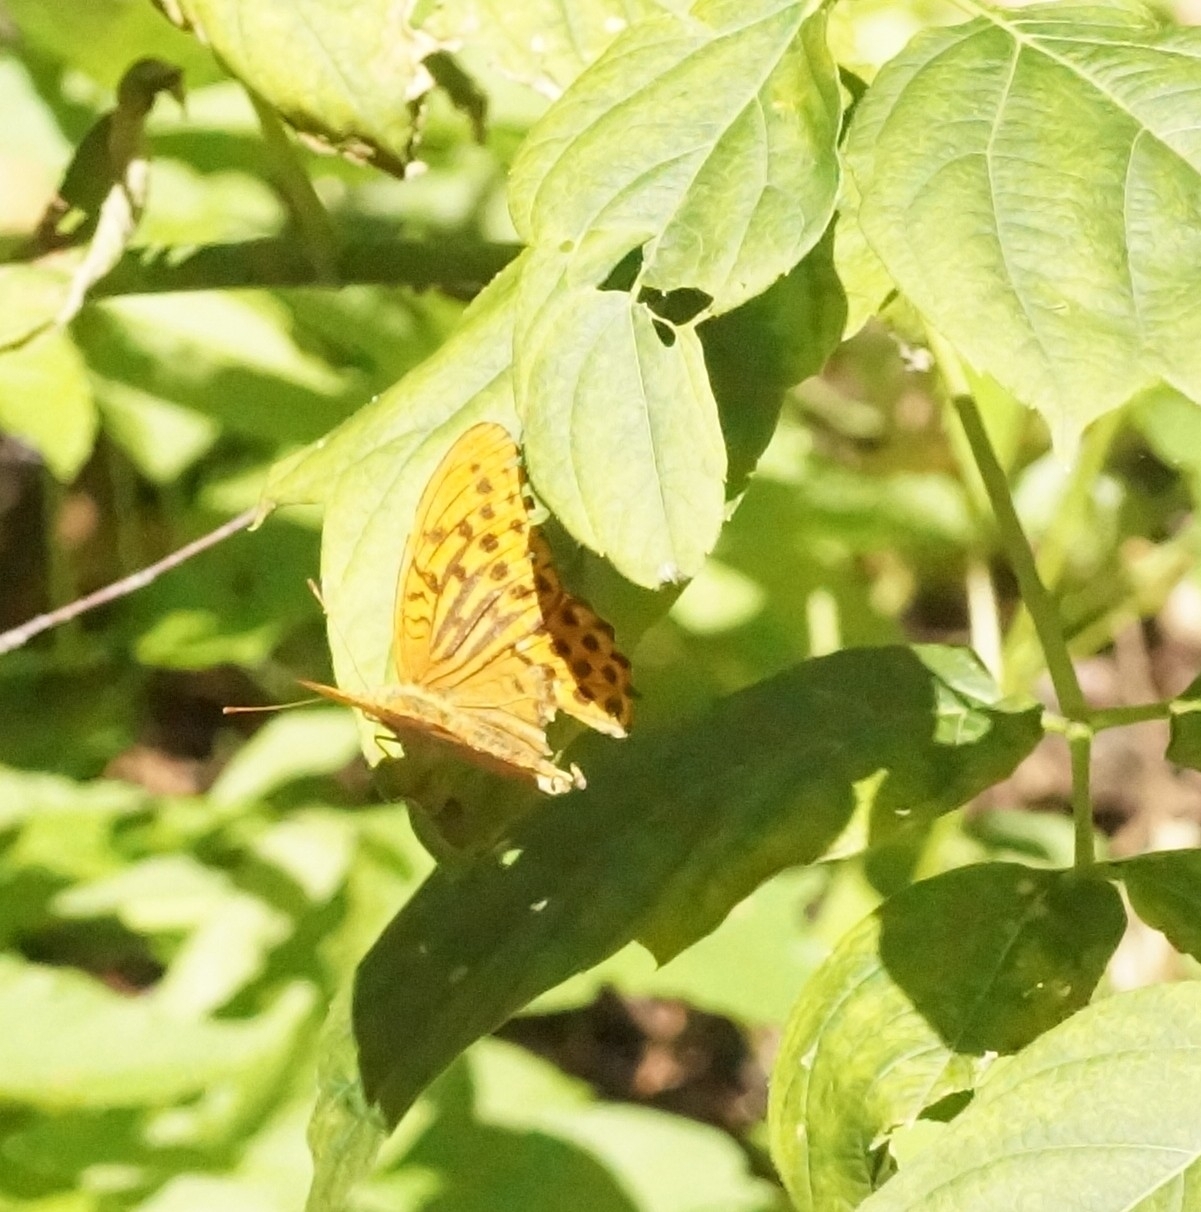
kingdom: Animalia
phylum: Arthropoda
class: Insecta
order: Lepidoptera
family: Nymphalidae
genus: Argynnis
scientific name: Argynnis paphia
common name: Silver-washed fritillary
